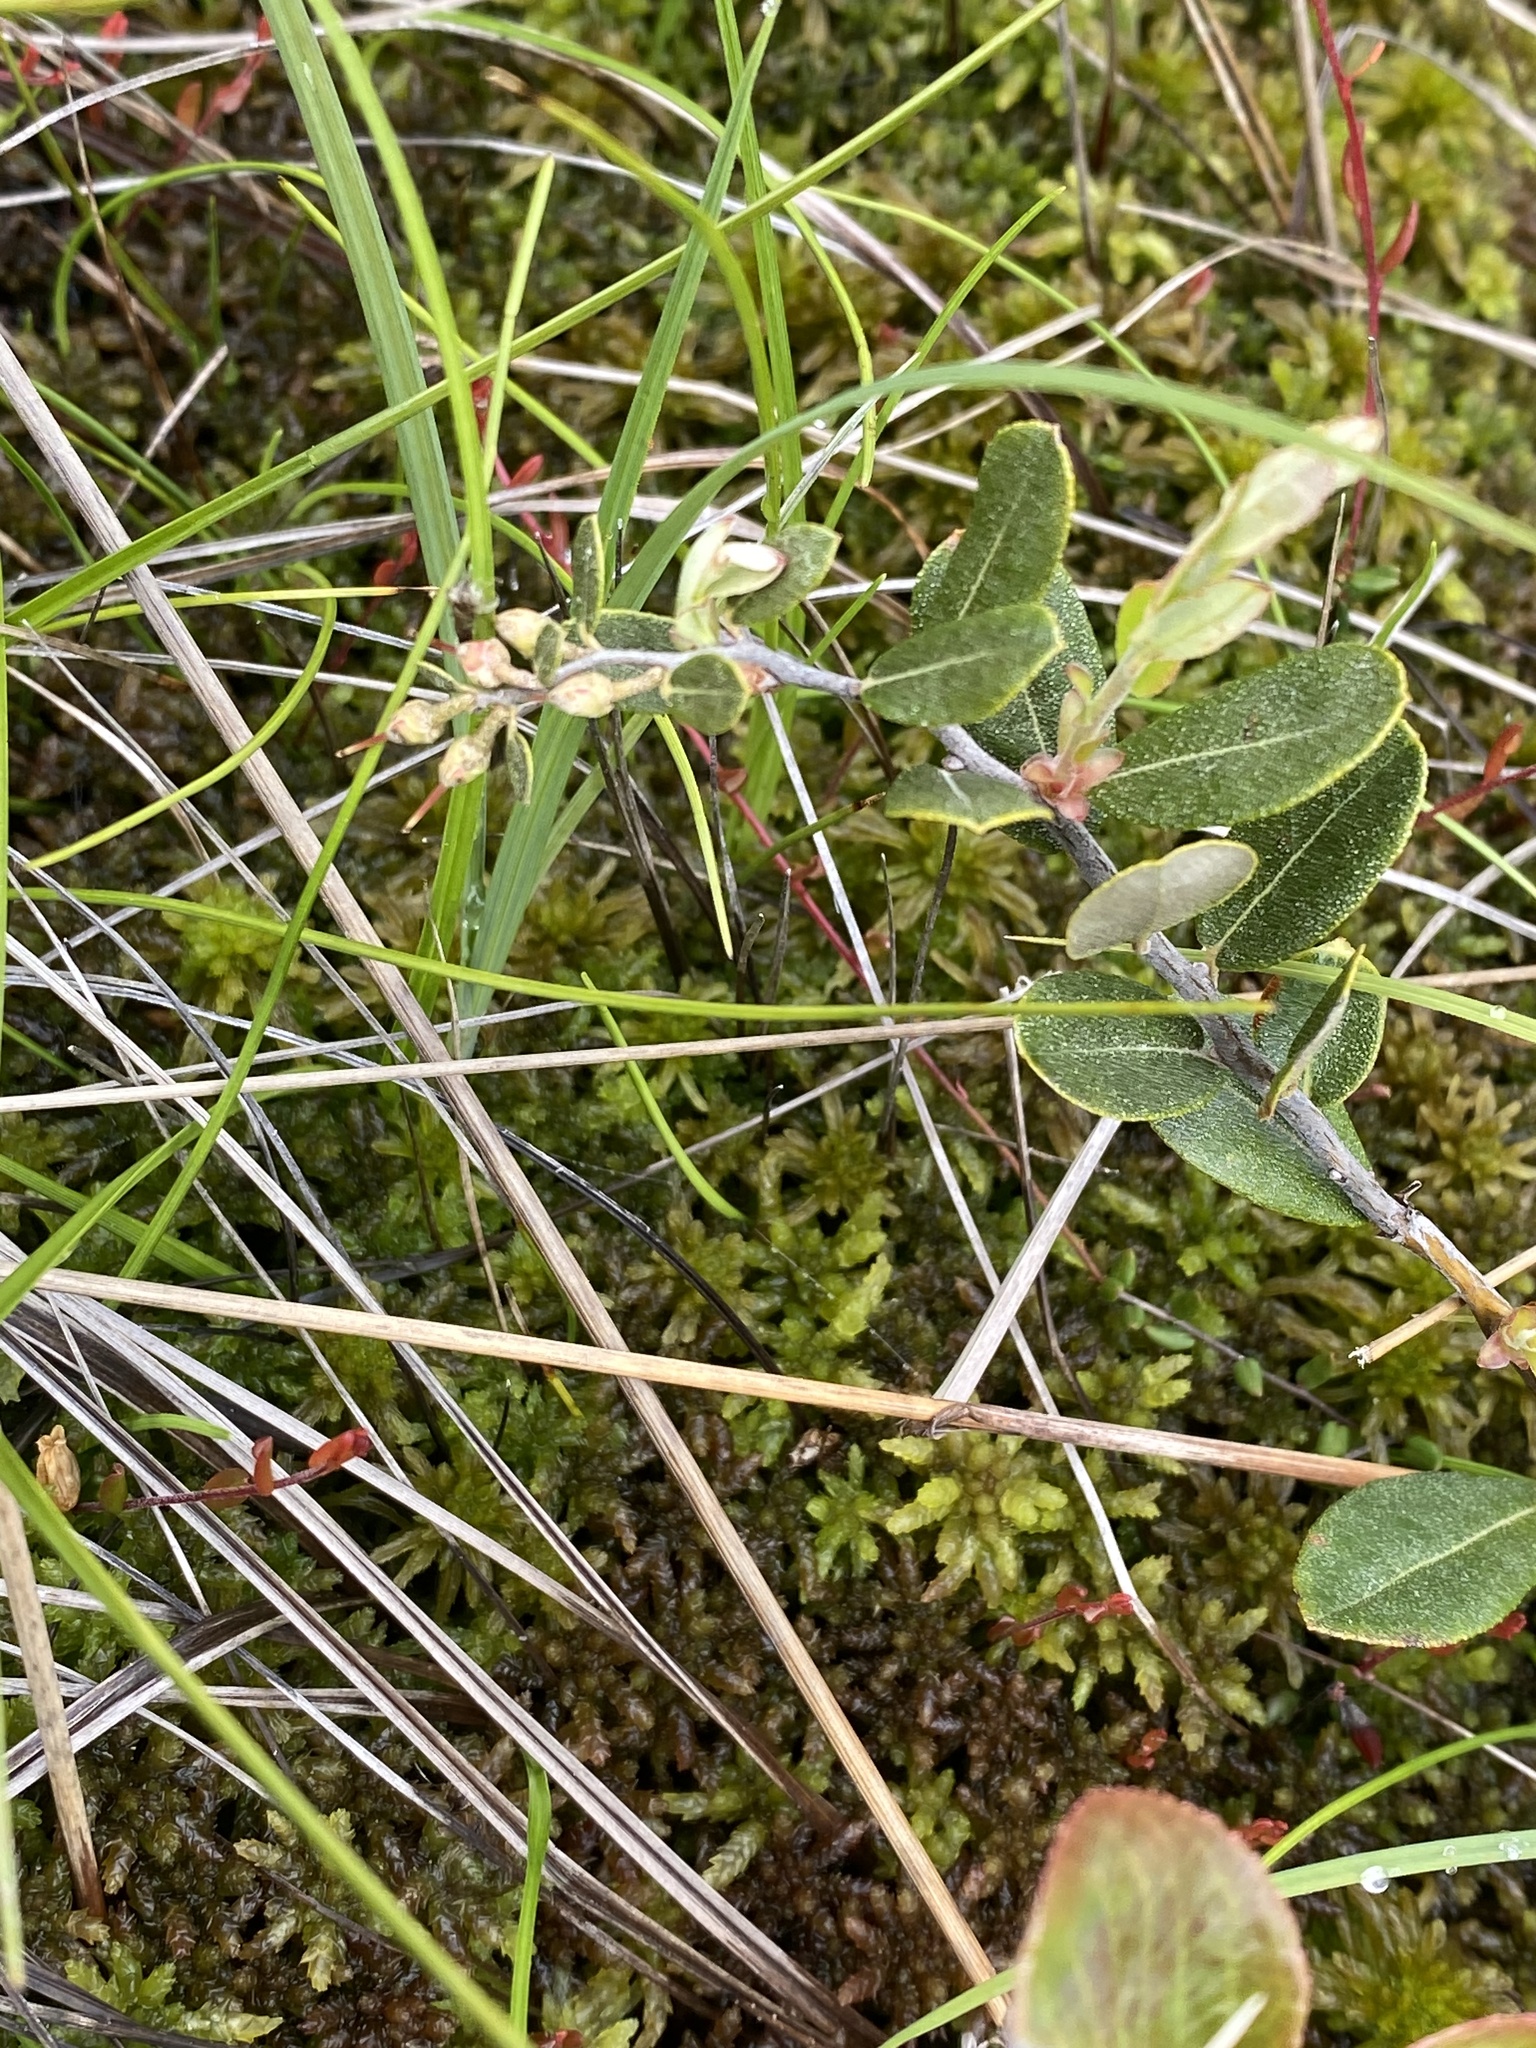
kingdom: Plantae
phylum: Tracheophyta
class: Magnoliopsida
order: Ericales
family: Ericaceae
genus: Chamaedaphne
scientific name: Chamaedaphne calyculata
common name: Leatherleaf
